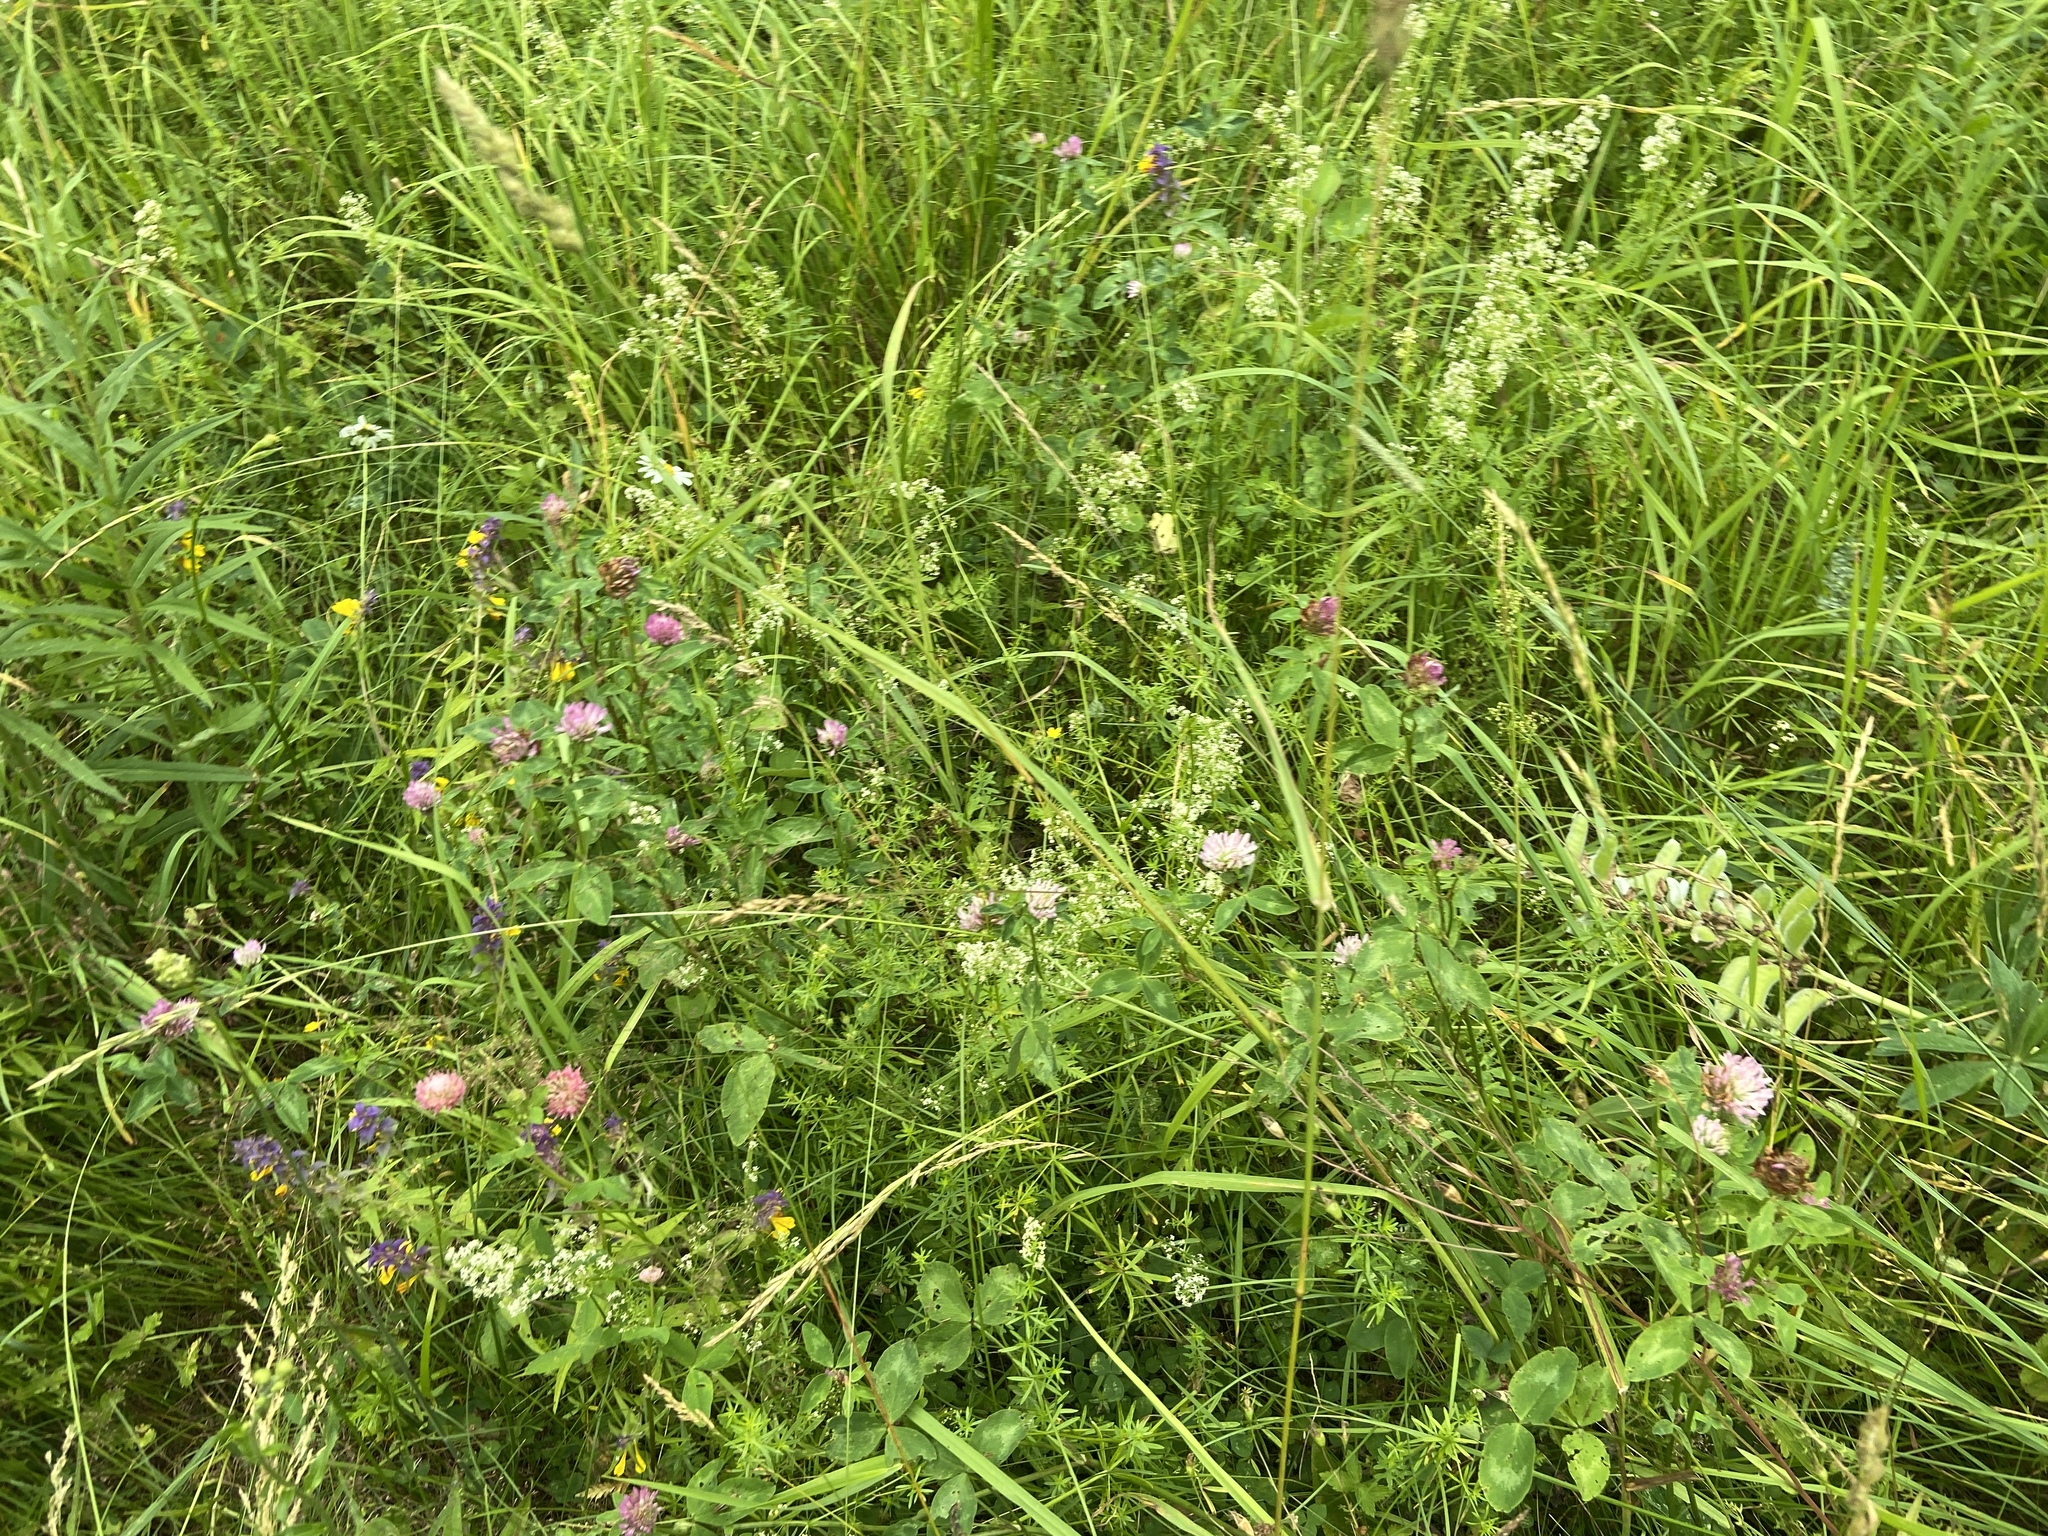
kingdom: Plantae
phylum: Tracheophyta
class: Magnoliopsida
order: Fabales
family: Fabaceae
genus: Trifolium
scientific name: Trifolium pratense
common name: Red clover
